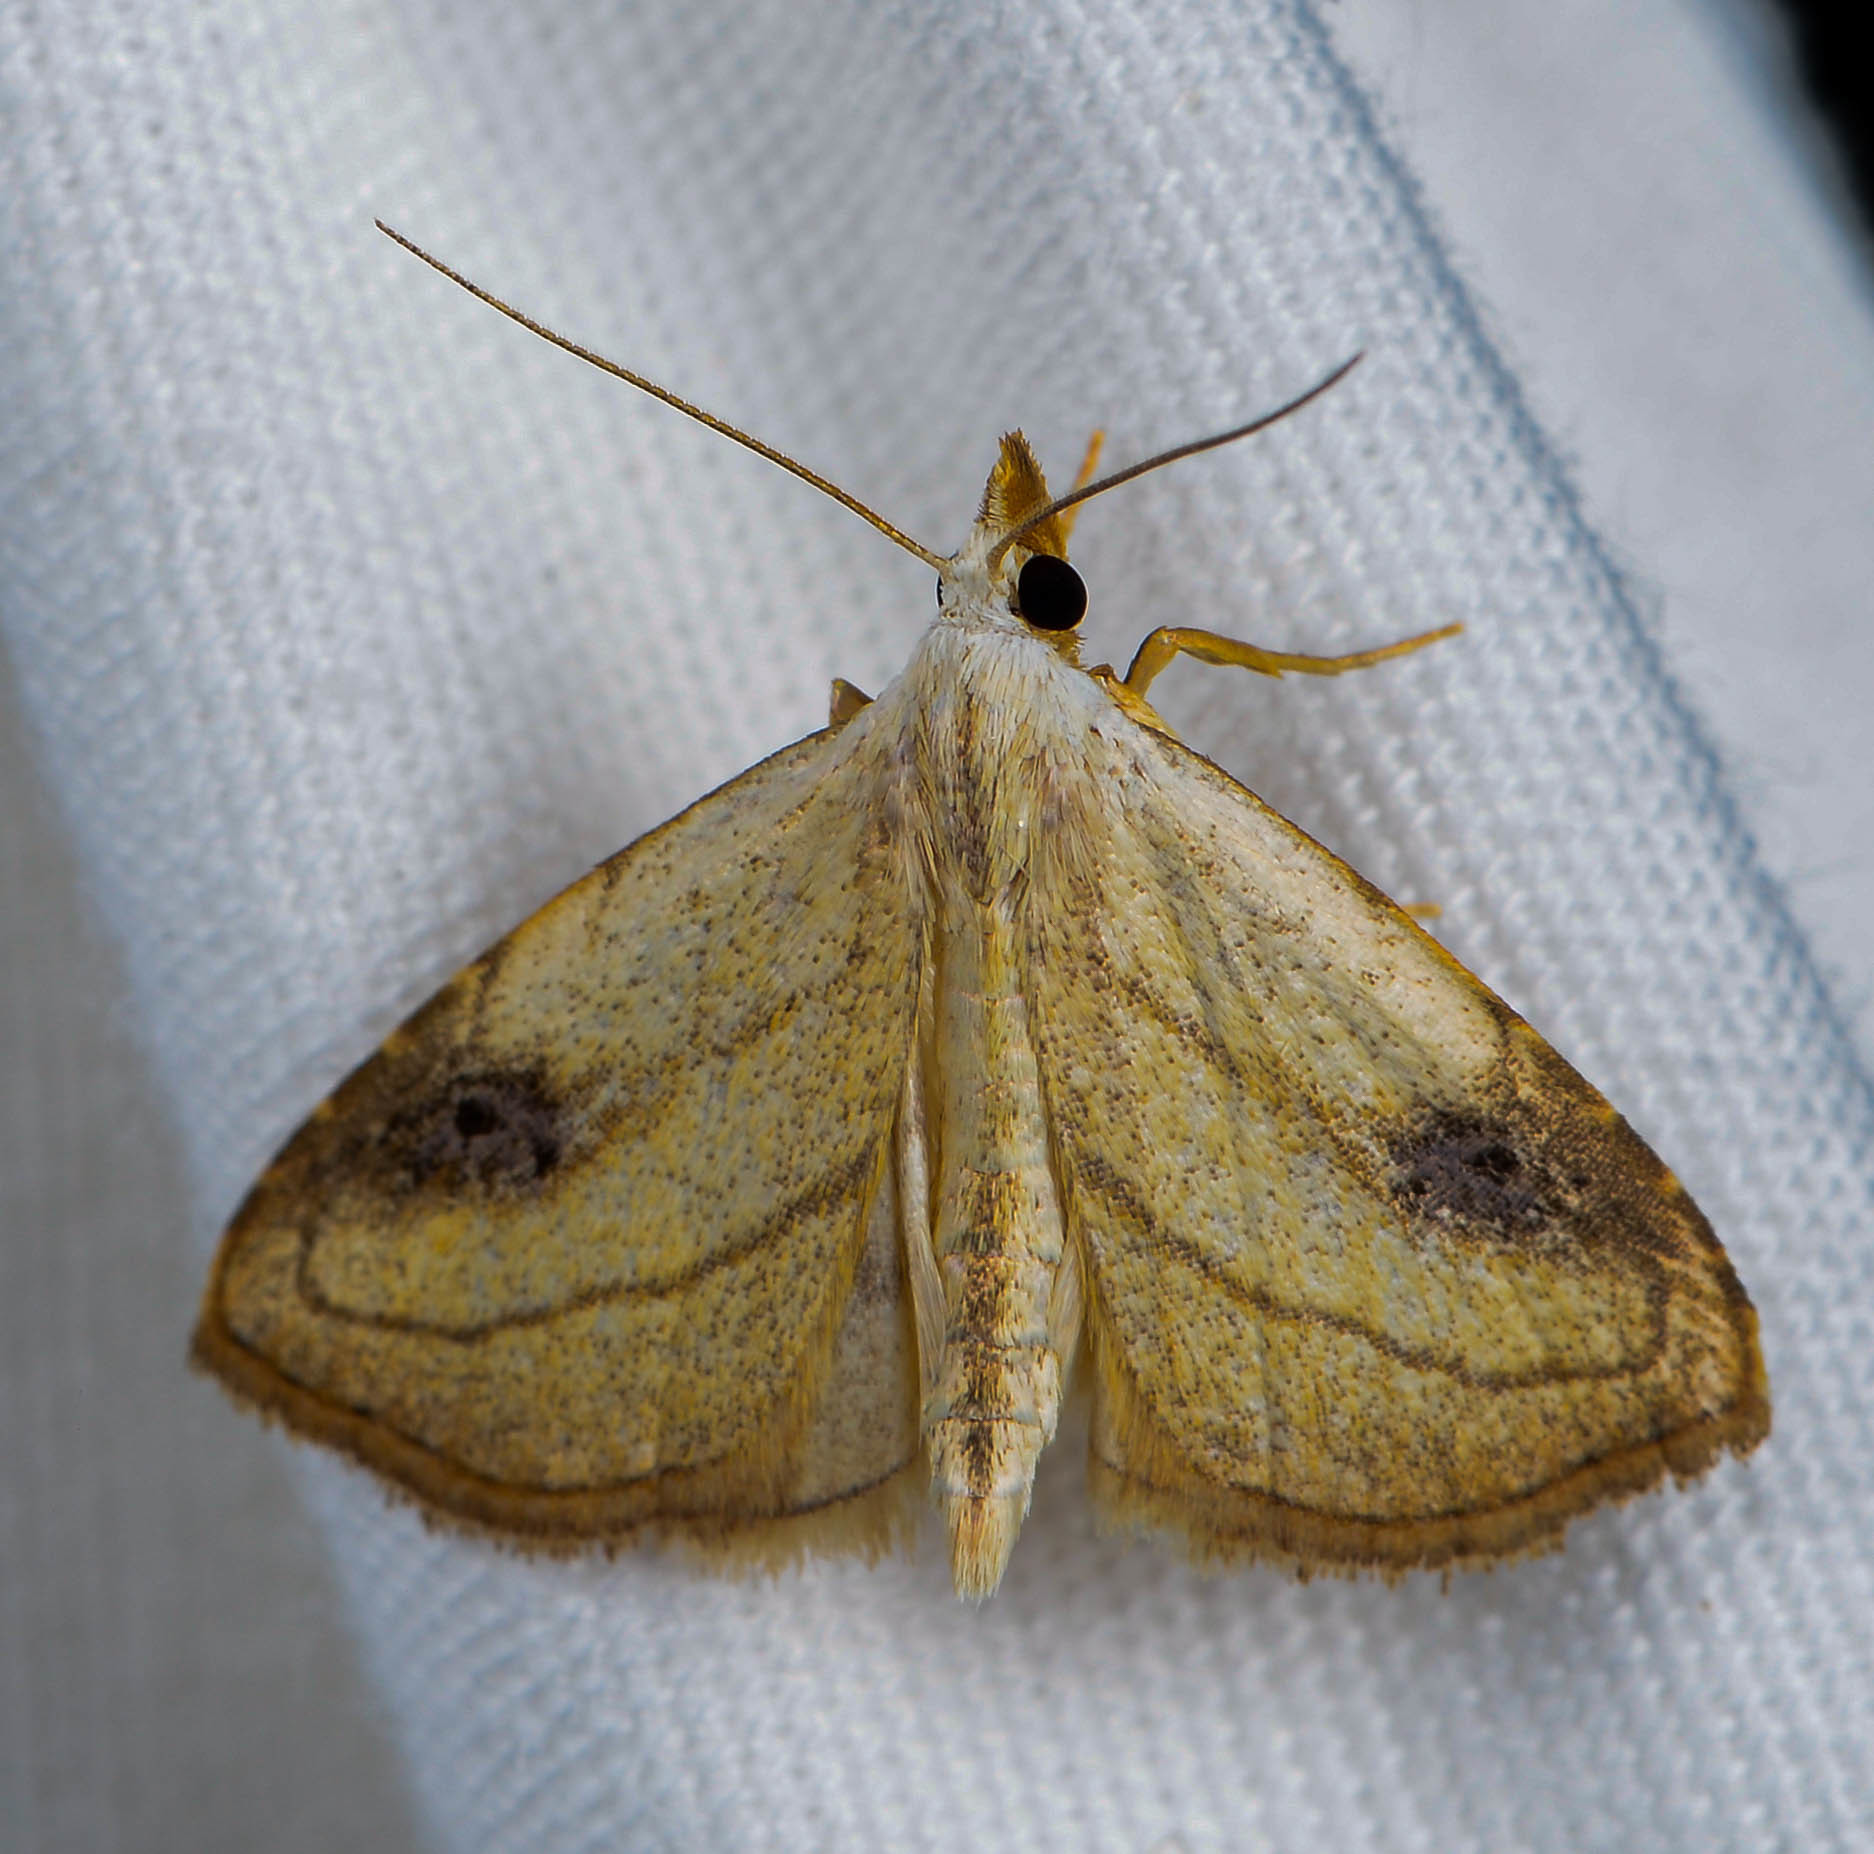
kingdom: Animalia
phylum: Arthropoda
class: Insecta
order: Lepidoptera
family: Erebidae
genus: Rivula
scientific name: Rivula propinqualis
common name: Spotted grass moth
